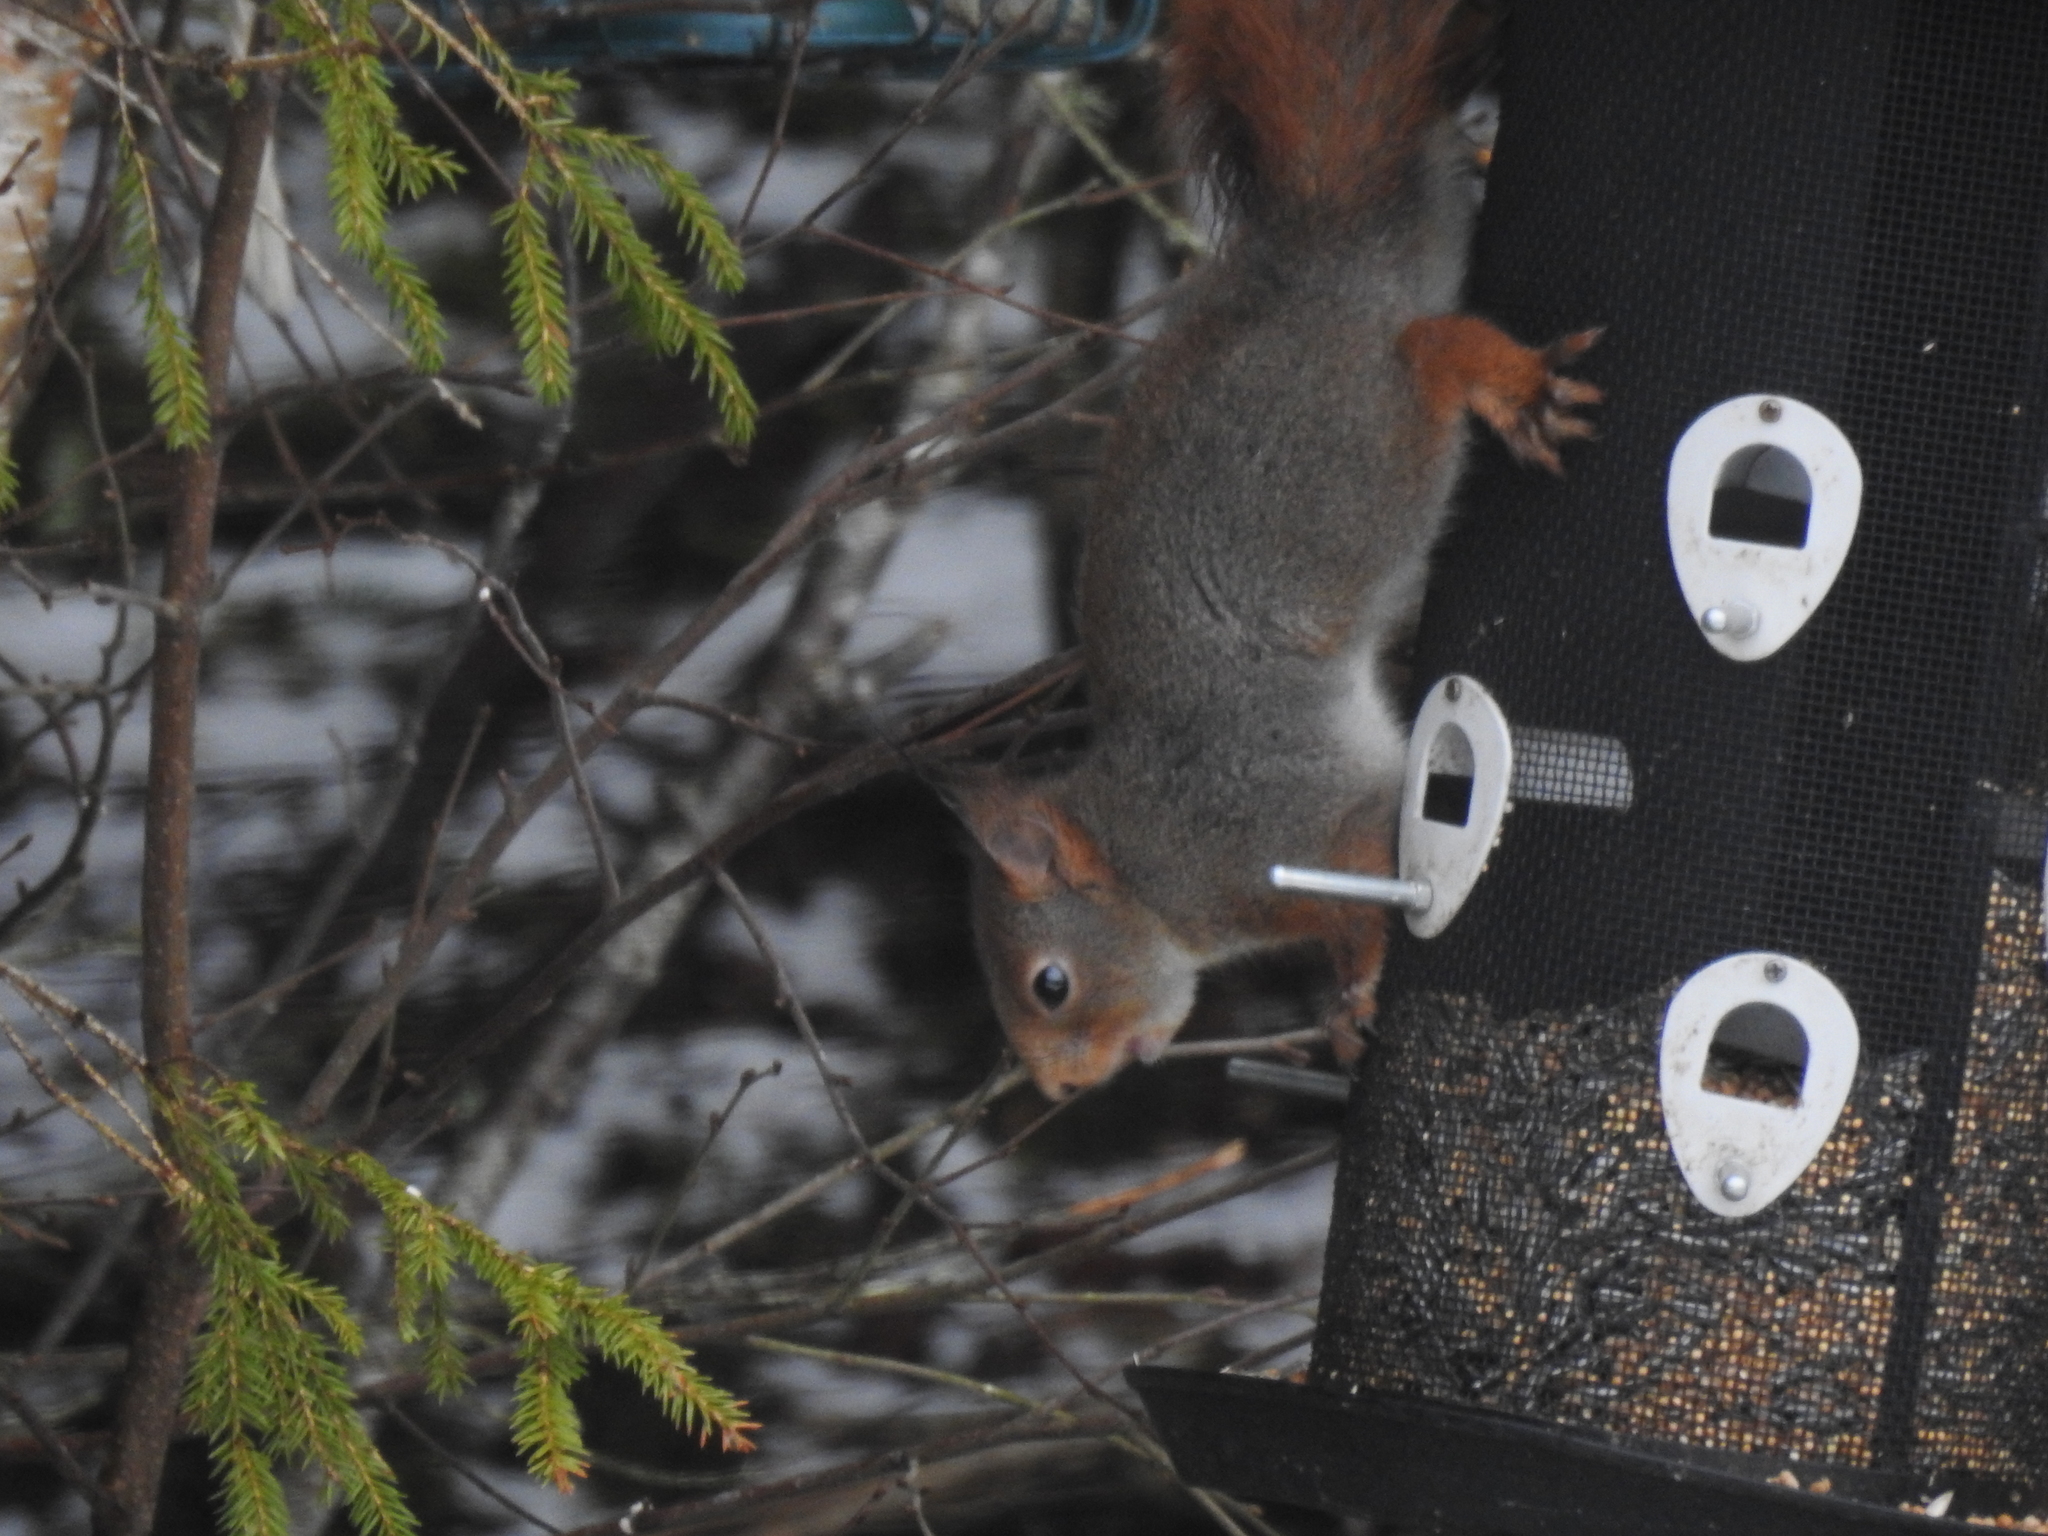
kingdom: Animalia
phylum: Chordata
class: Mammalia
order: Rodentia
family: Sciuridae
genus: Sciurus
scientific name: Sciurus vulgaris
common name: Eurasian red squirrel
